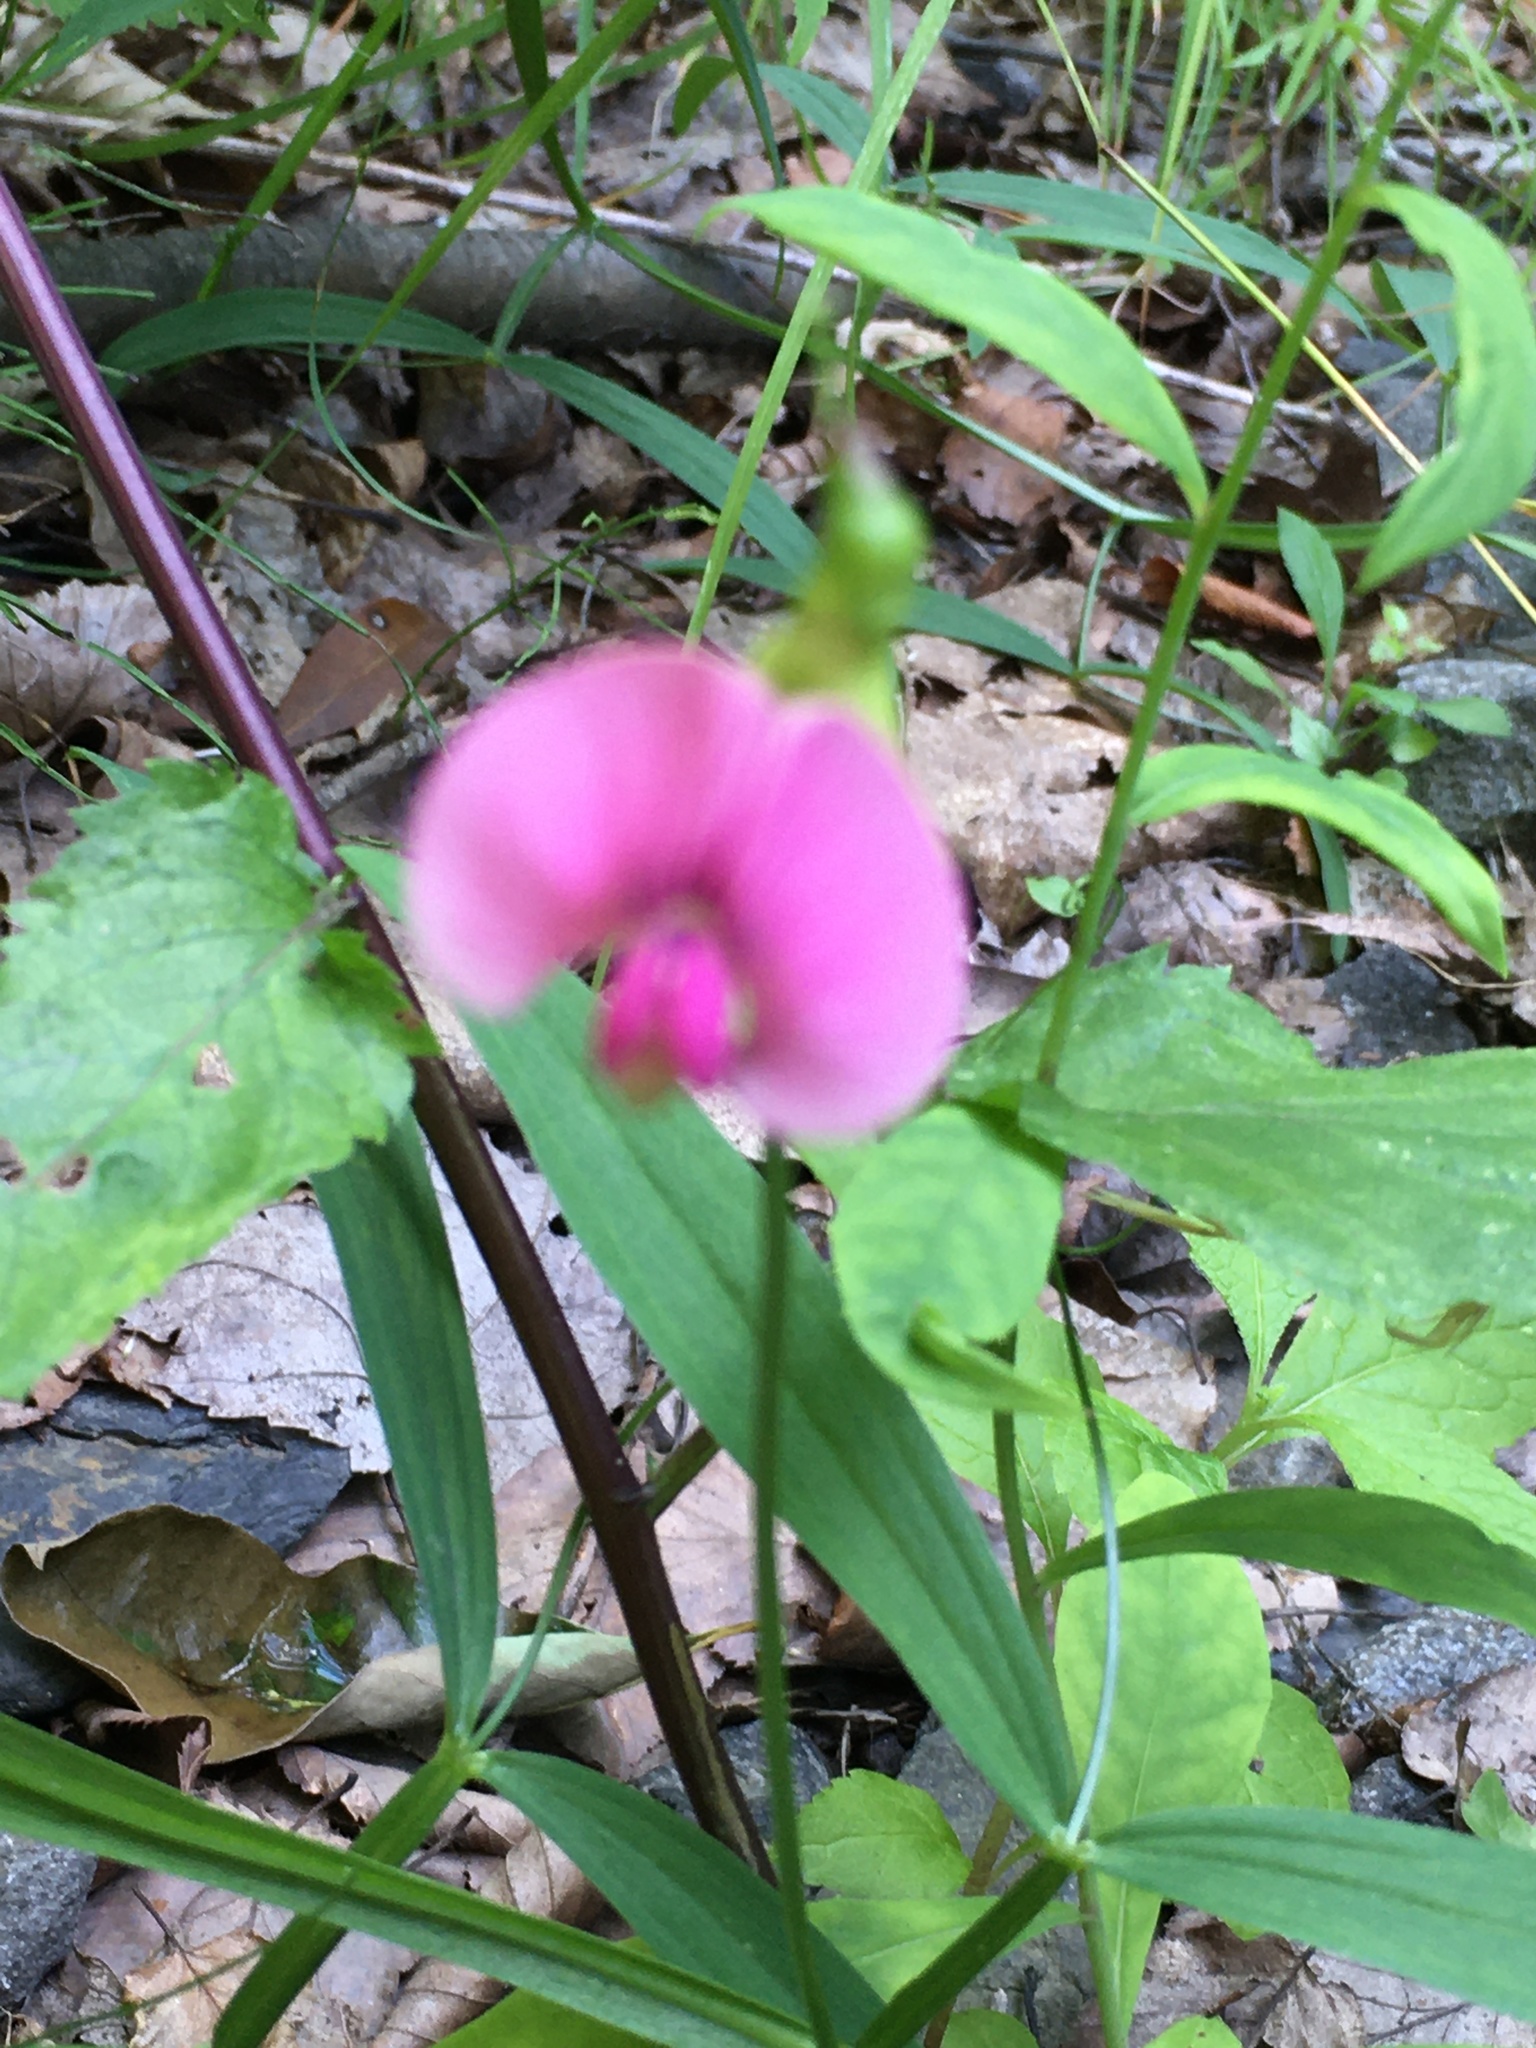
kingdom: Plantae
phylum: Tracheophyta
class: Magnoliopsida
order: Fabales
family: Fabaceae
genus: Lathyrus
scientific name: Lathyrus sylvestris
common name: Flat pea
